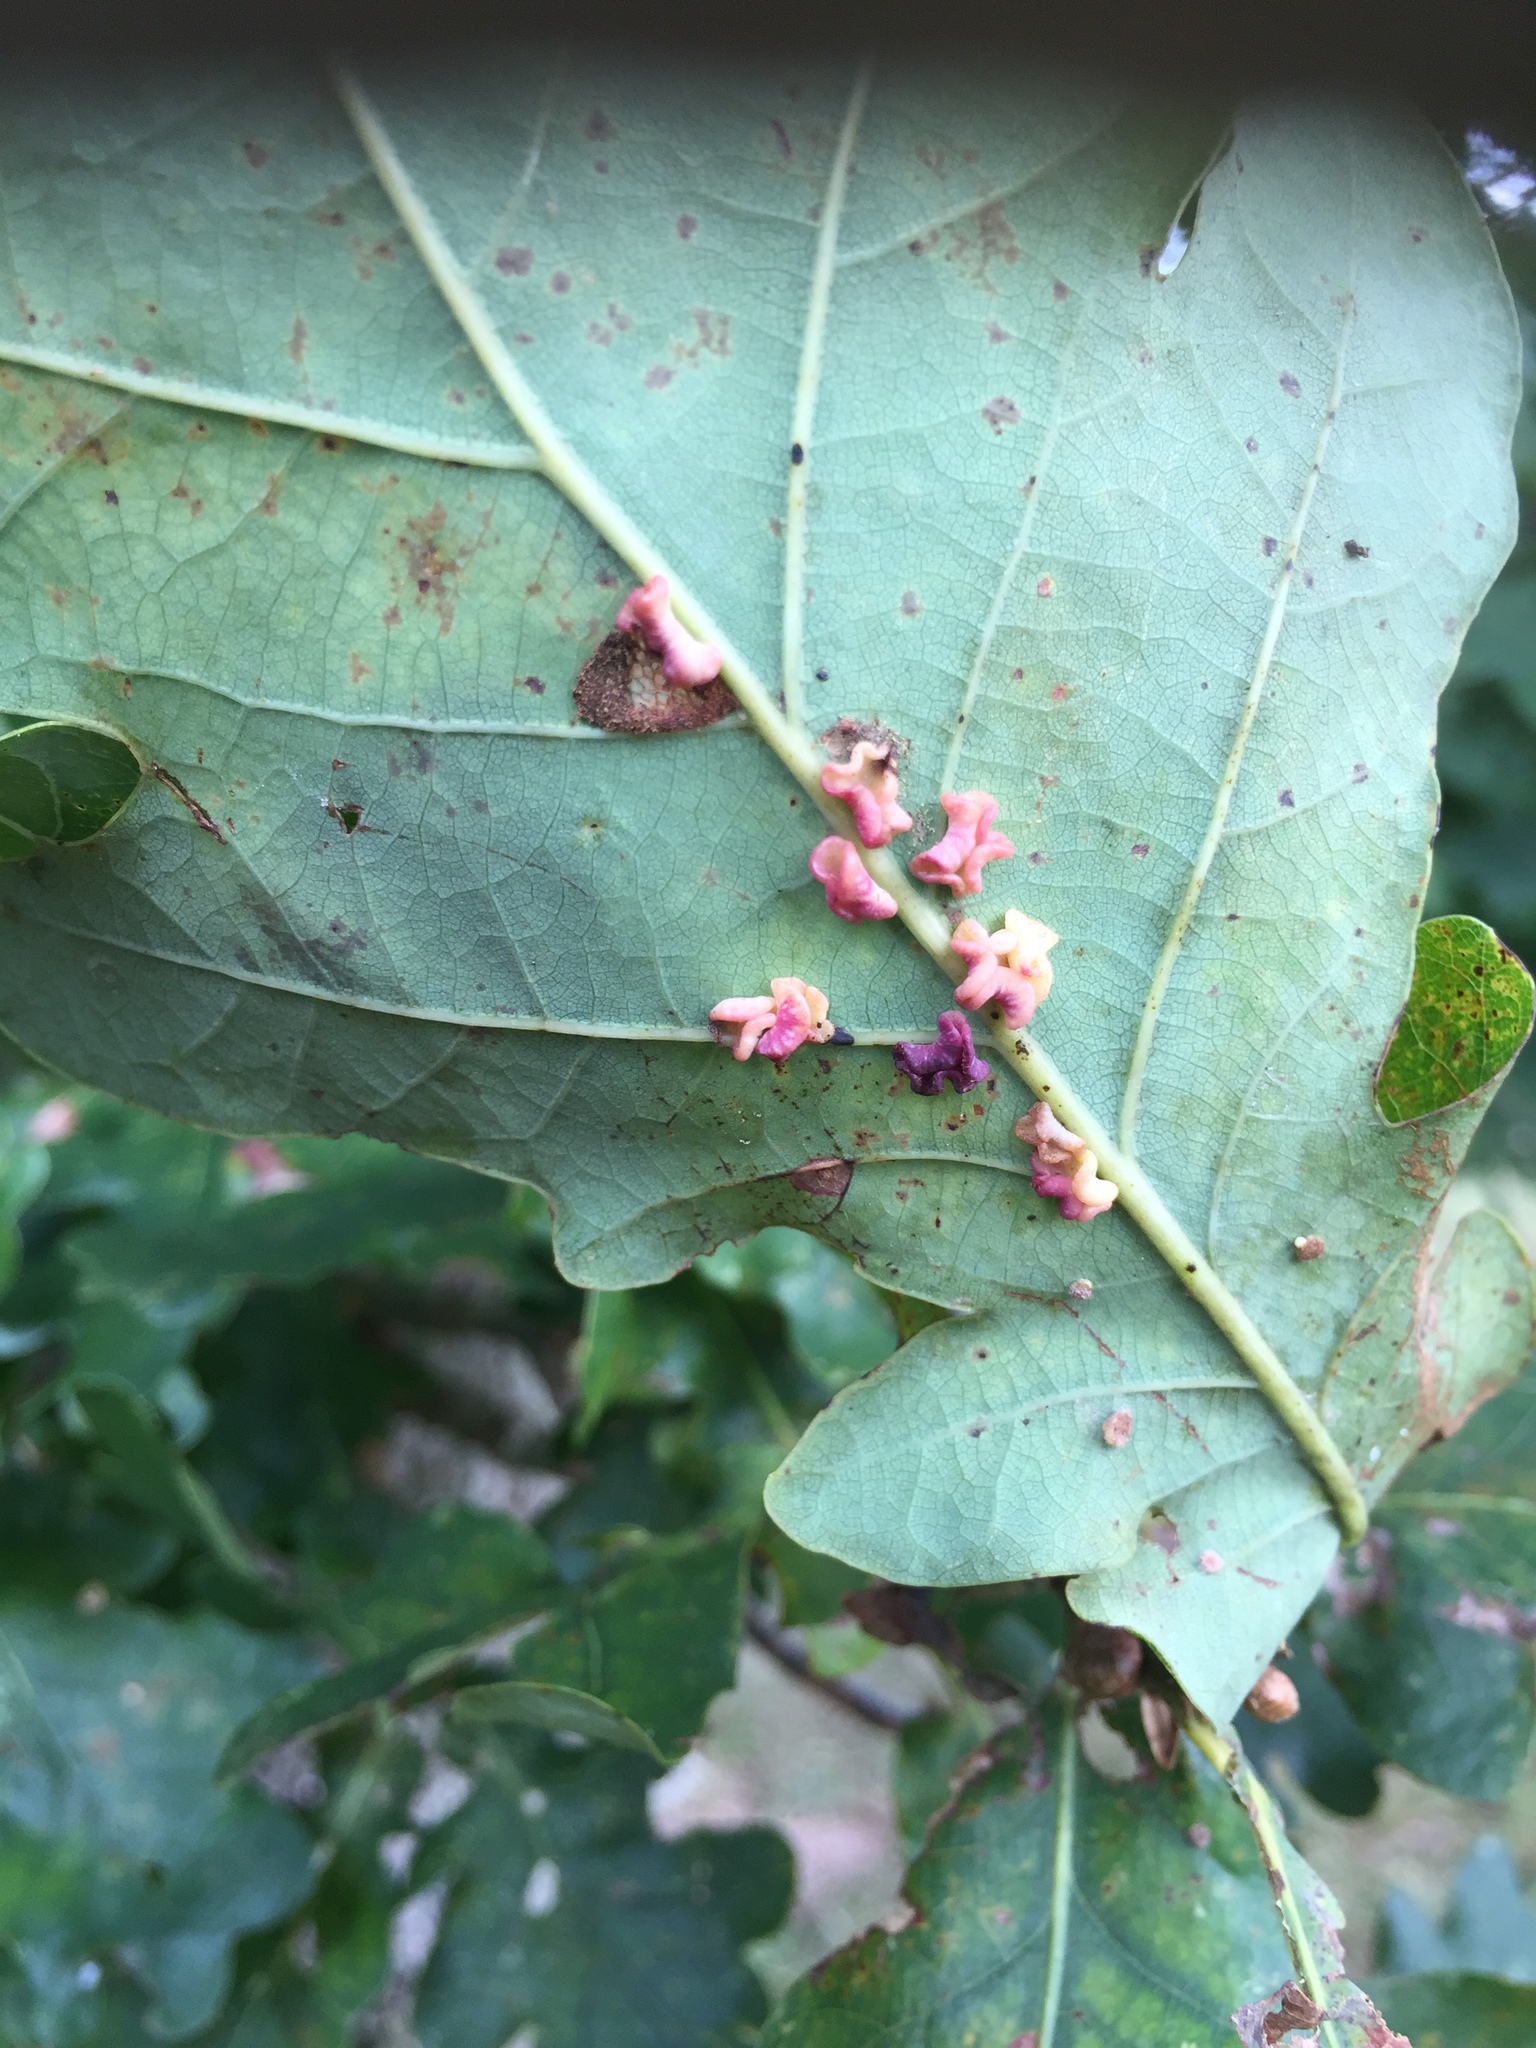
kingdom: Animalia
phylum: Arthropoda
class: Insecta
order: Hymenoptera
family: Cynipidae
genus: Neuroterus
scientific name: Neuroterus albipes
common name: Smooth spangle gall
